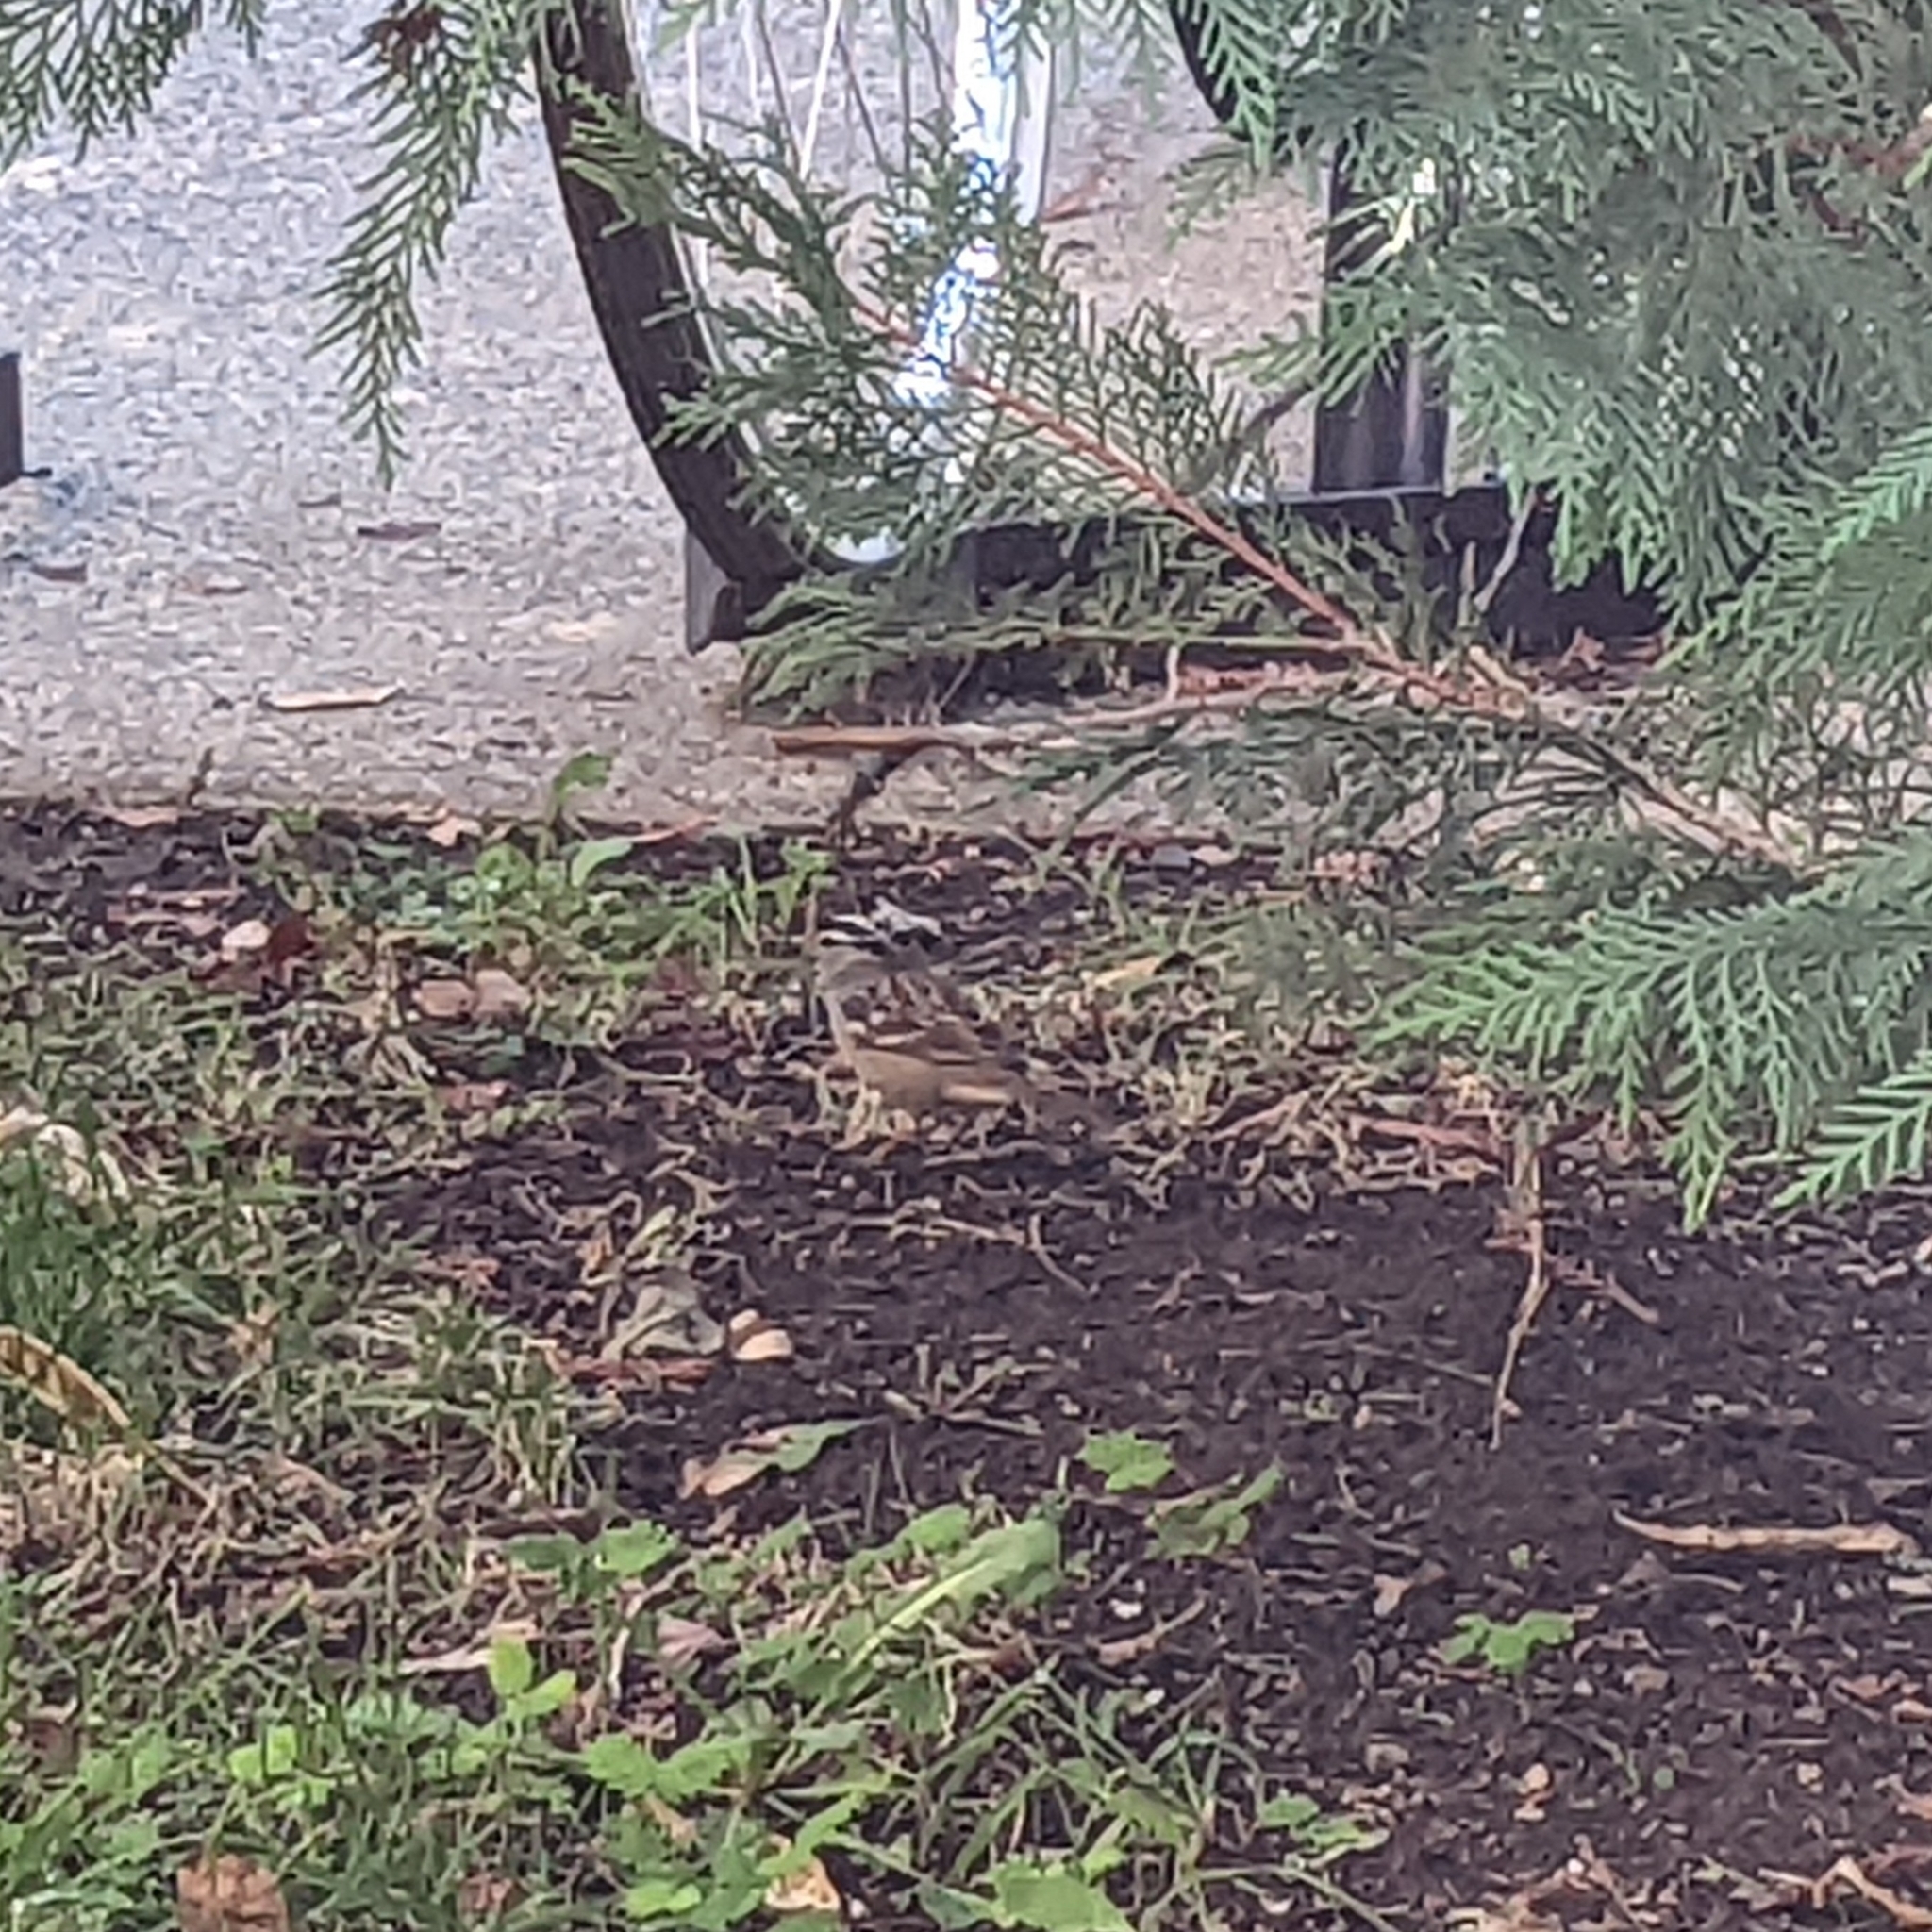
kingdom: Animalia
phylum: Chordata
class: Aves
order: Passeriformes
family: Passerellidae
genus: Zonotrichia
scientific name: Zonotrichia leucophrys
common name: White-crowned sparrow
